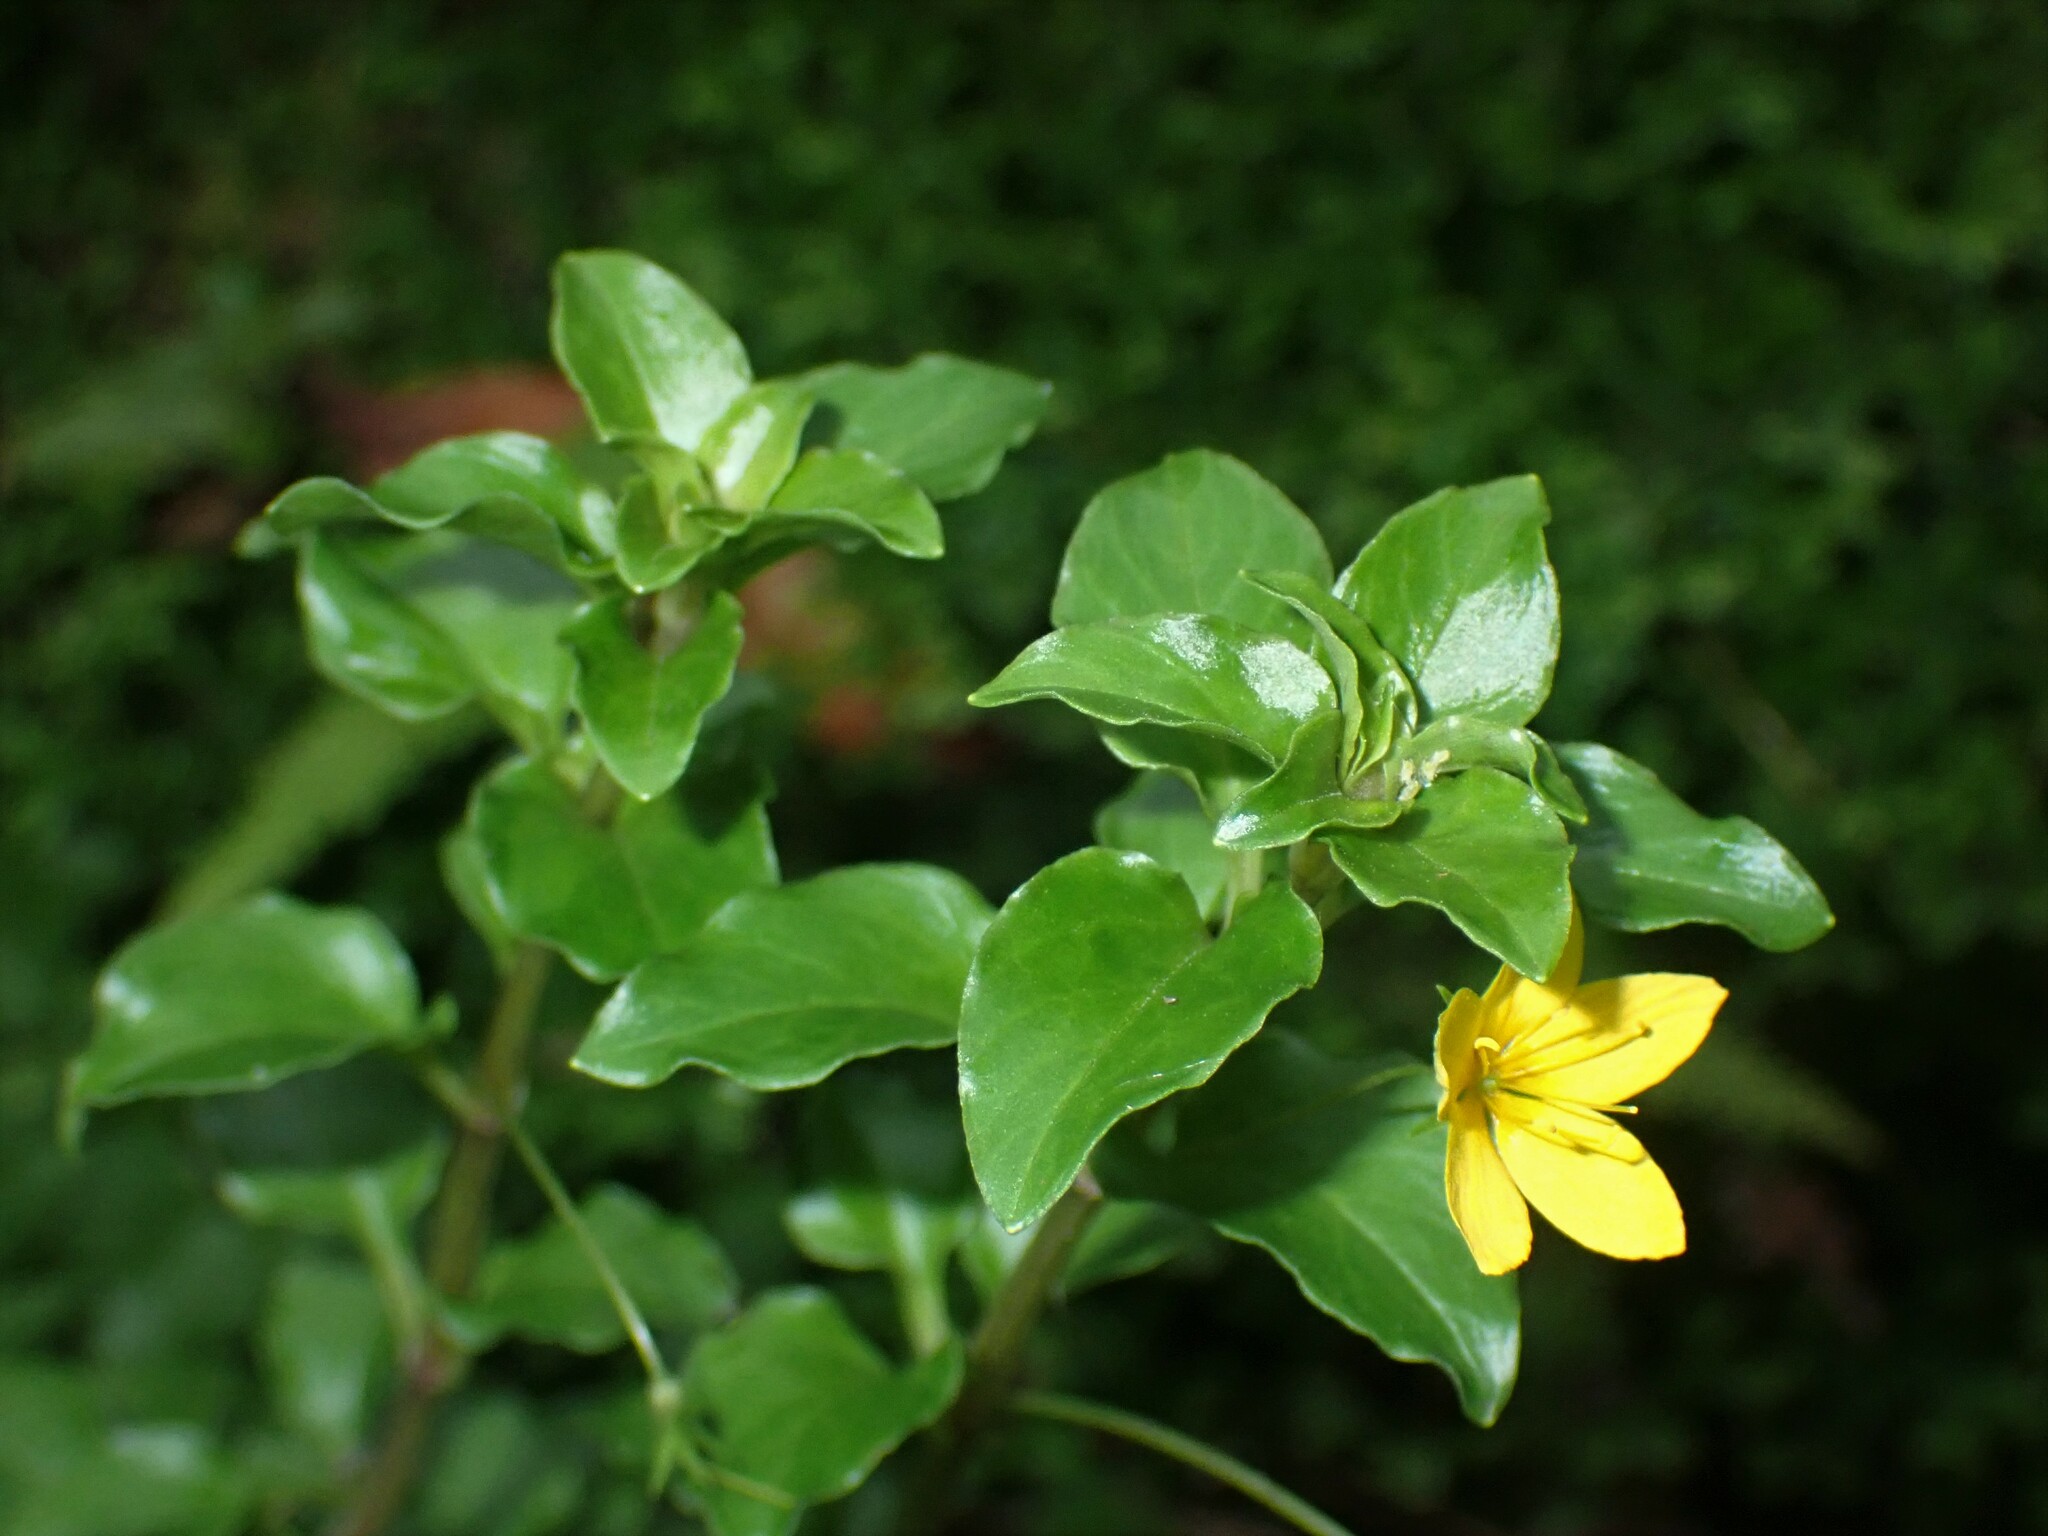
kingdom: Plantae
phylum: Tracheophyta
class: Magnoliopsida
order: Ericales
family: Primulaceae
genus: Lysimachia
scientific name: Lysimachia azorica
